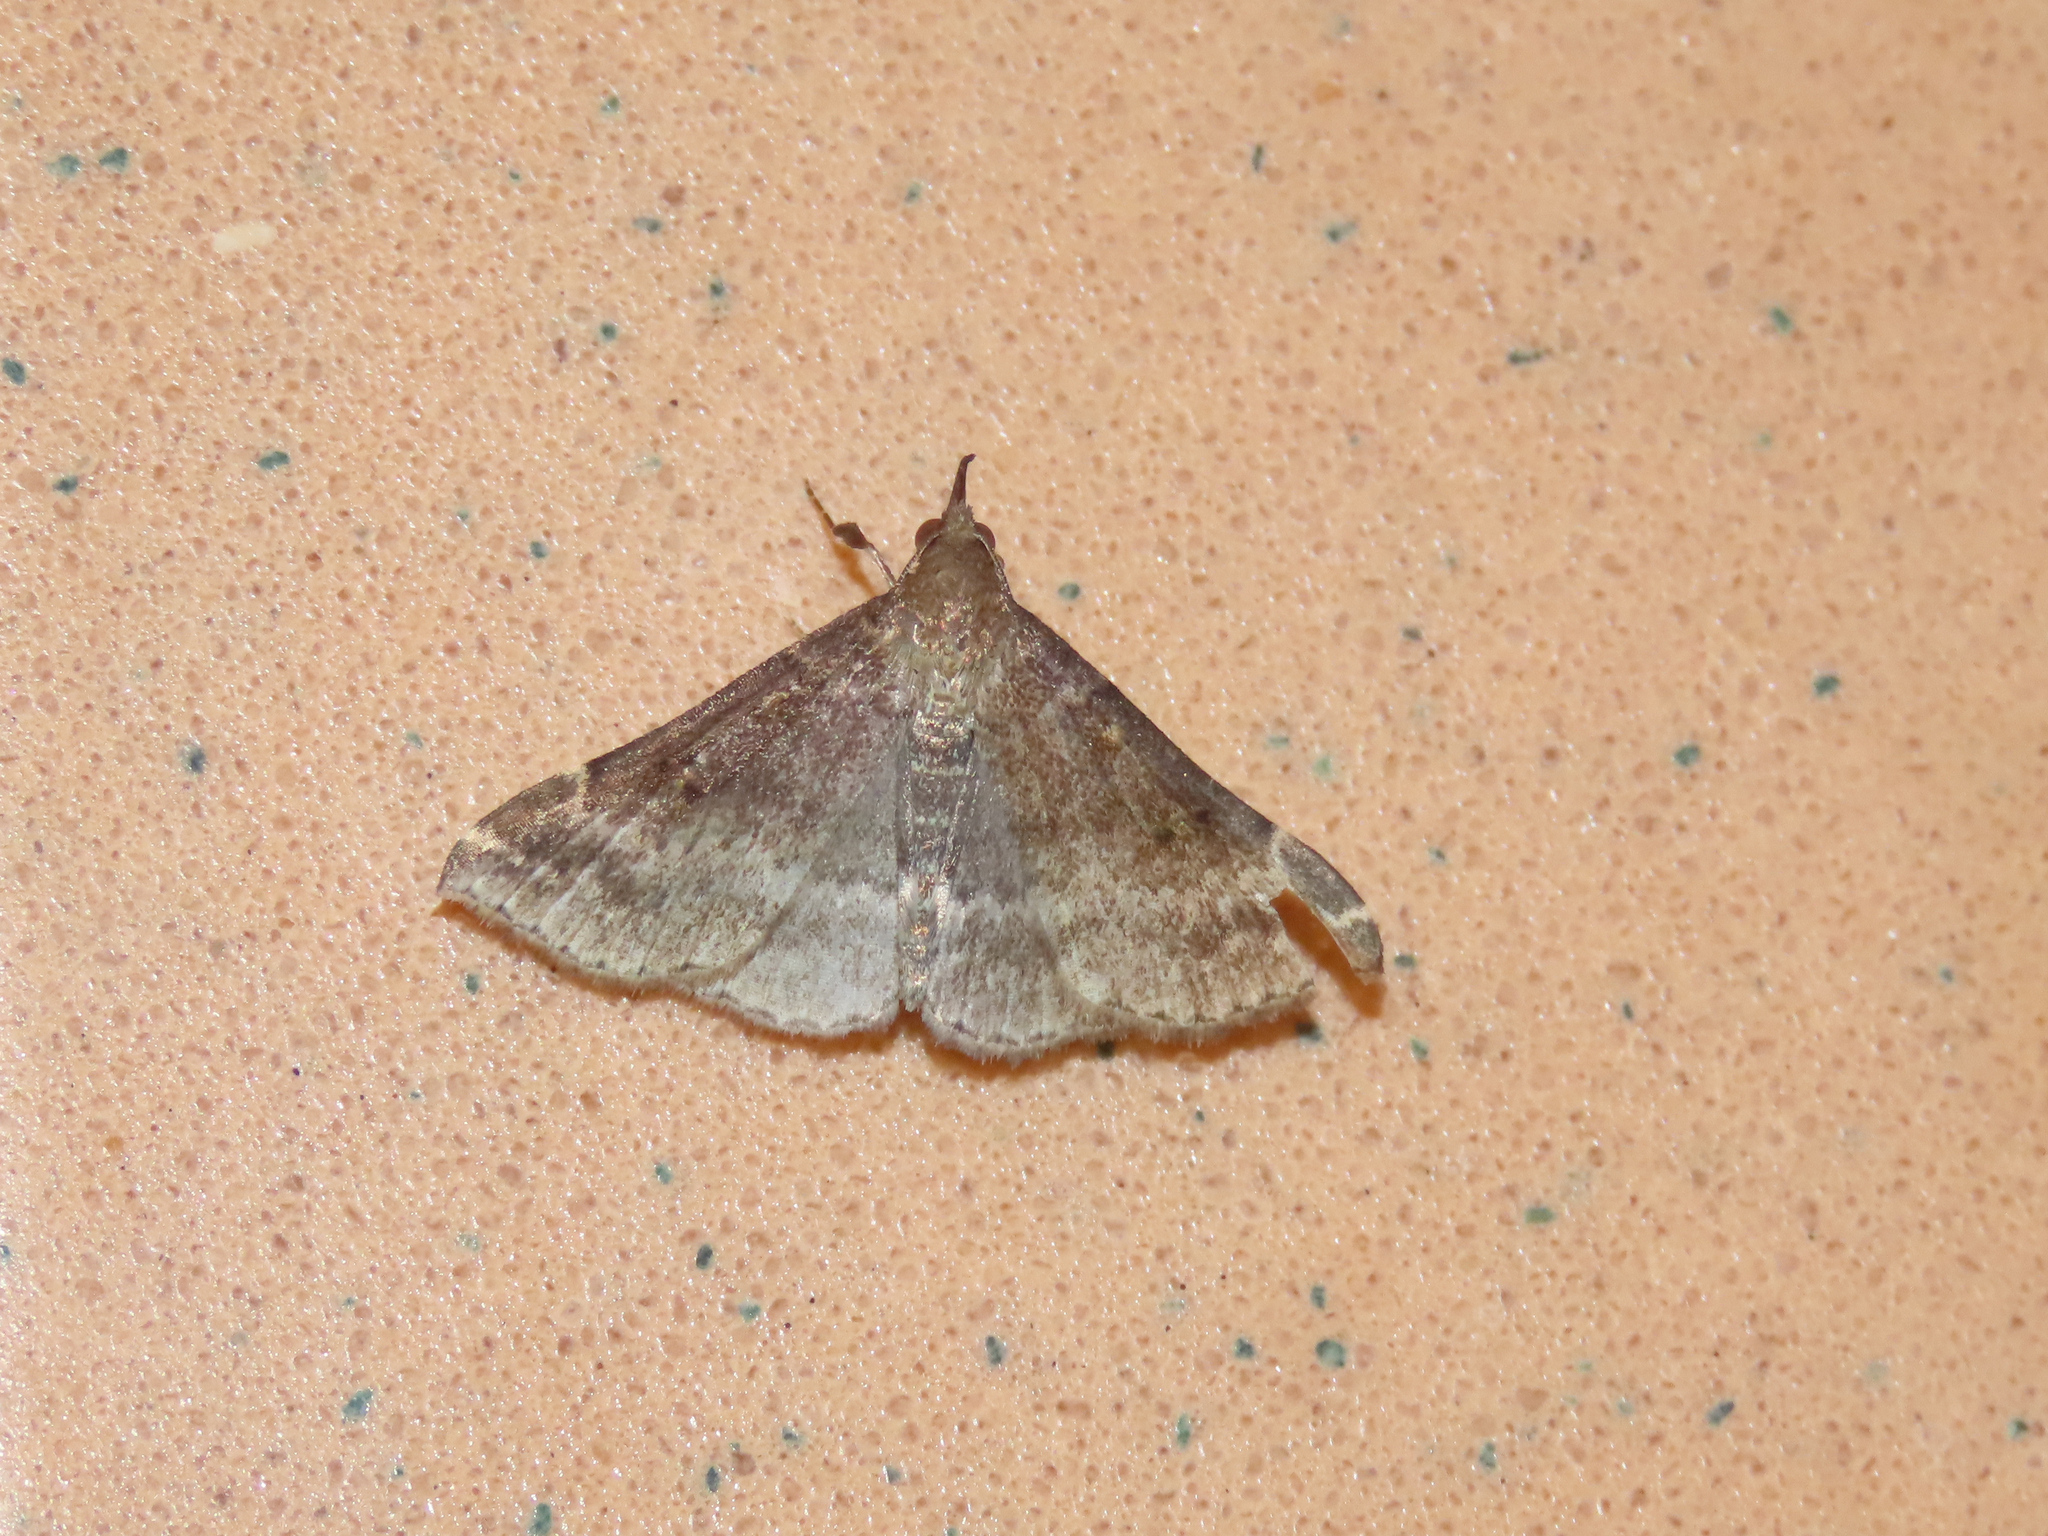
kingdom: Animalia
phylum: Arthropoda
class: Insecta
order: Lepidoptera
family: Erebidae
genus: Renia
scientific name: Renia factiosalis
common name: Sociable renia moth
